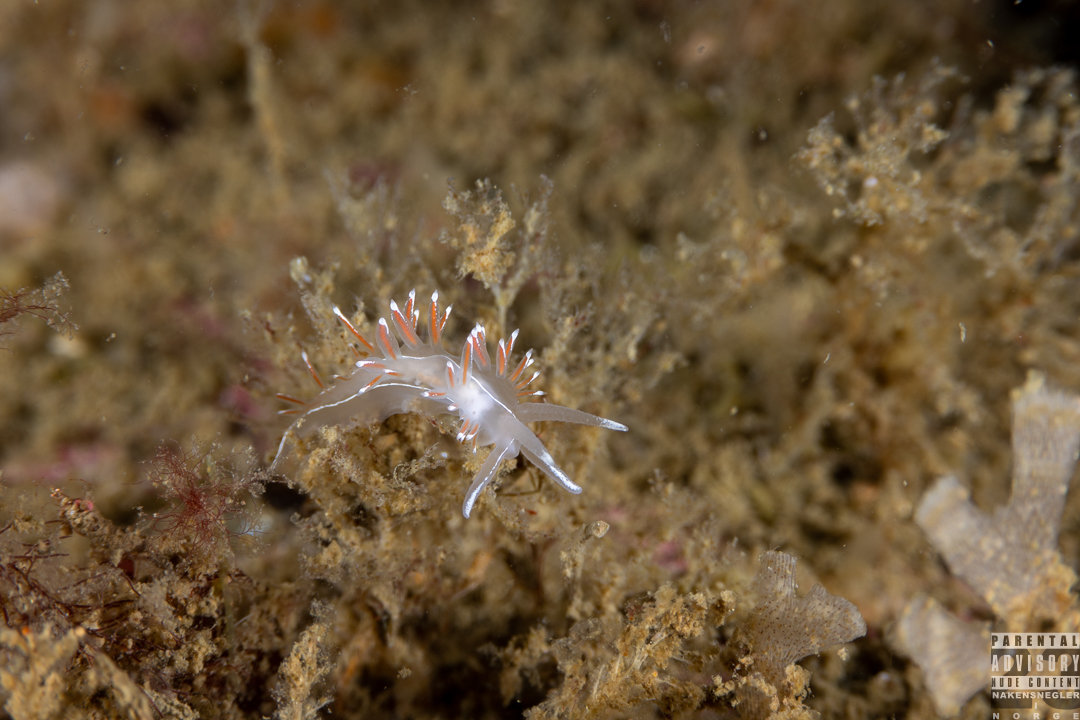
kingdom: Animalia
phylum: Mollusca
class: Gastropoda
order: Nudibranchia
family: Coryphellidae
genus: Coryphella
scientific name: Coryphella lineata
